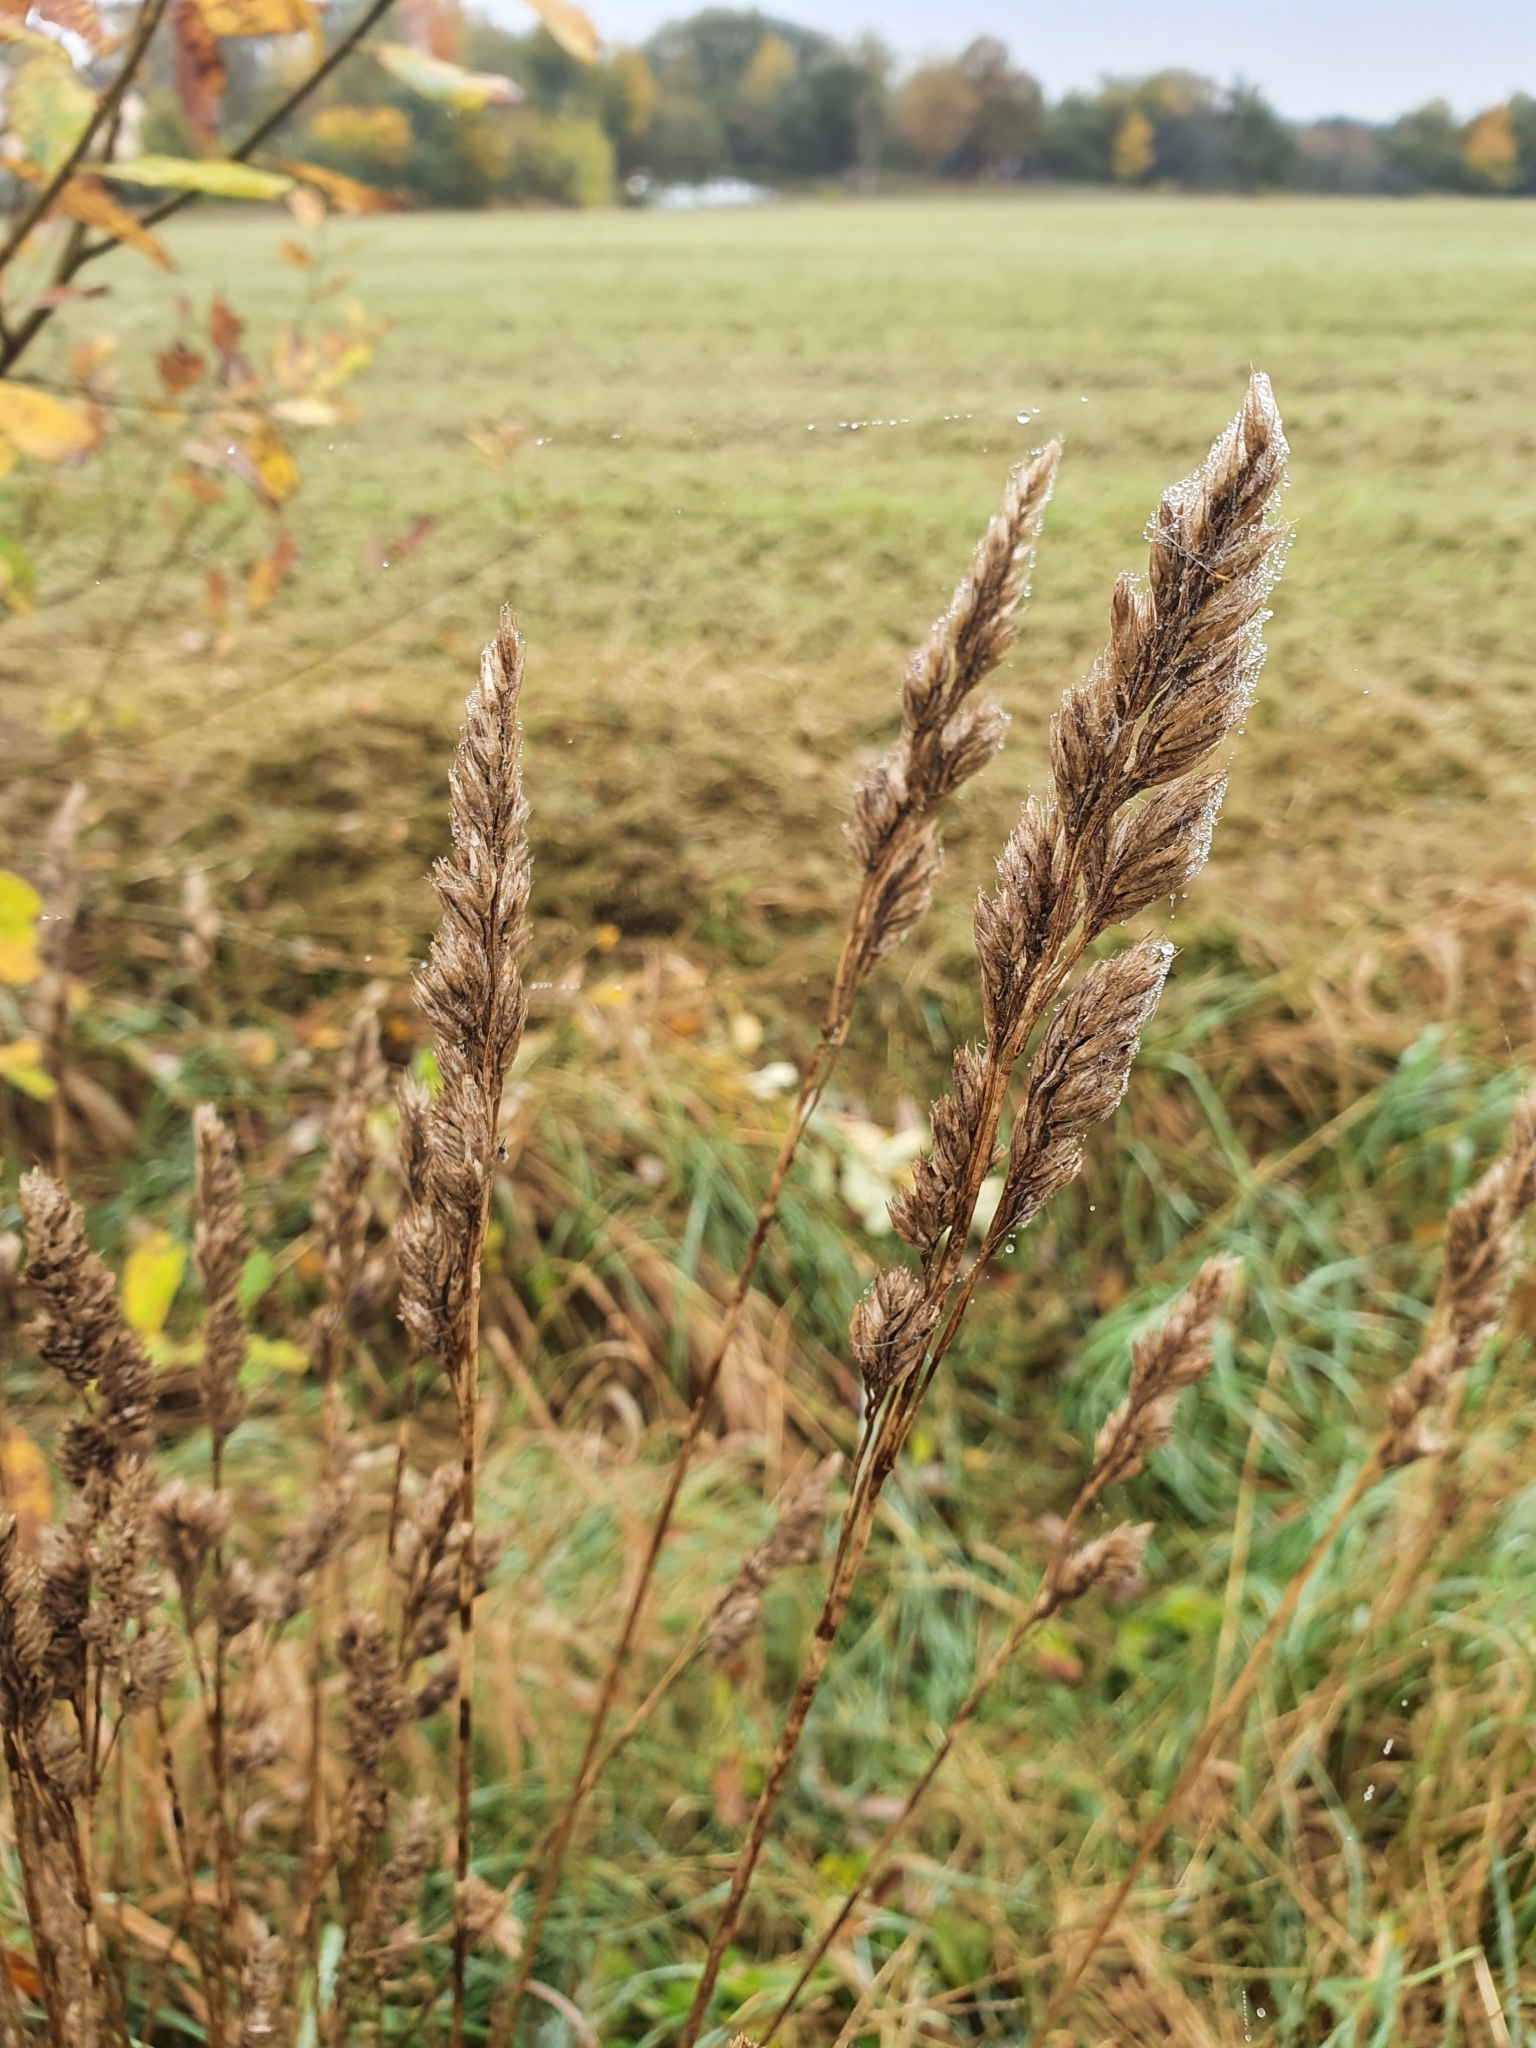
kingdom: Plantae
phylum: Tracheophyta
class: Liliopsida
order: Poales
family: Poaceae
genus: Dactylis
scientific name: Dactylis glomerata
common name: Orchardgrass
